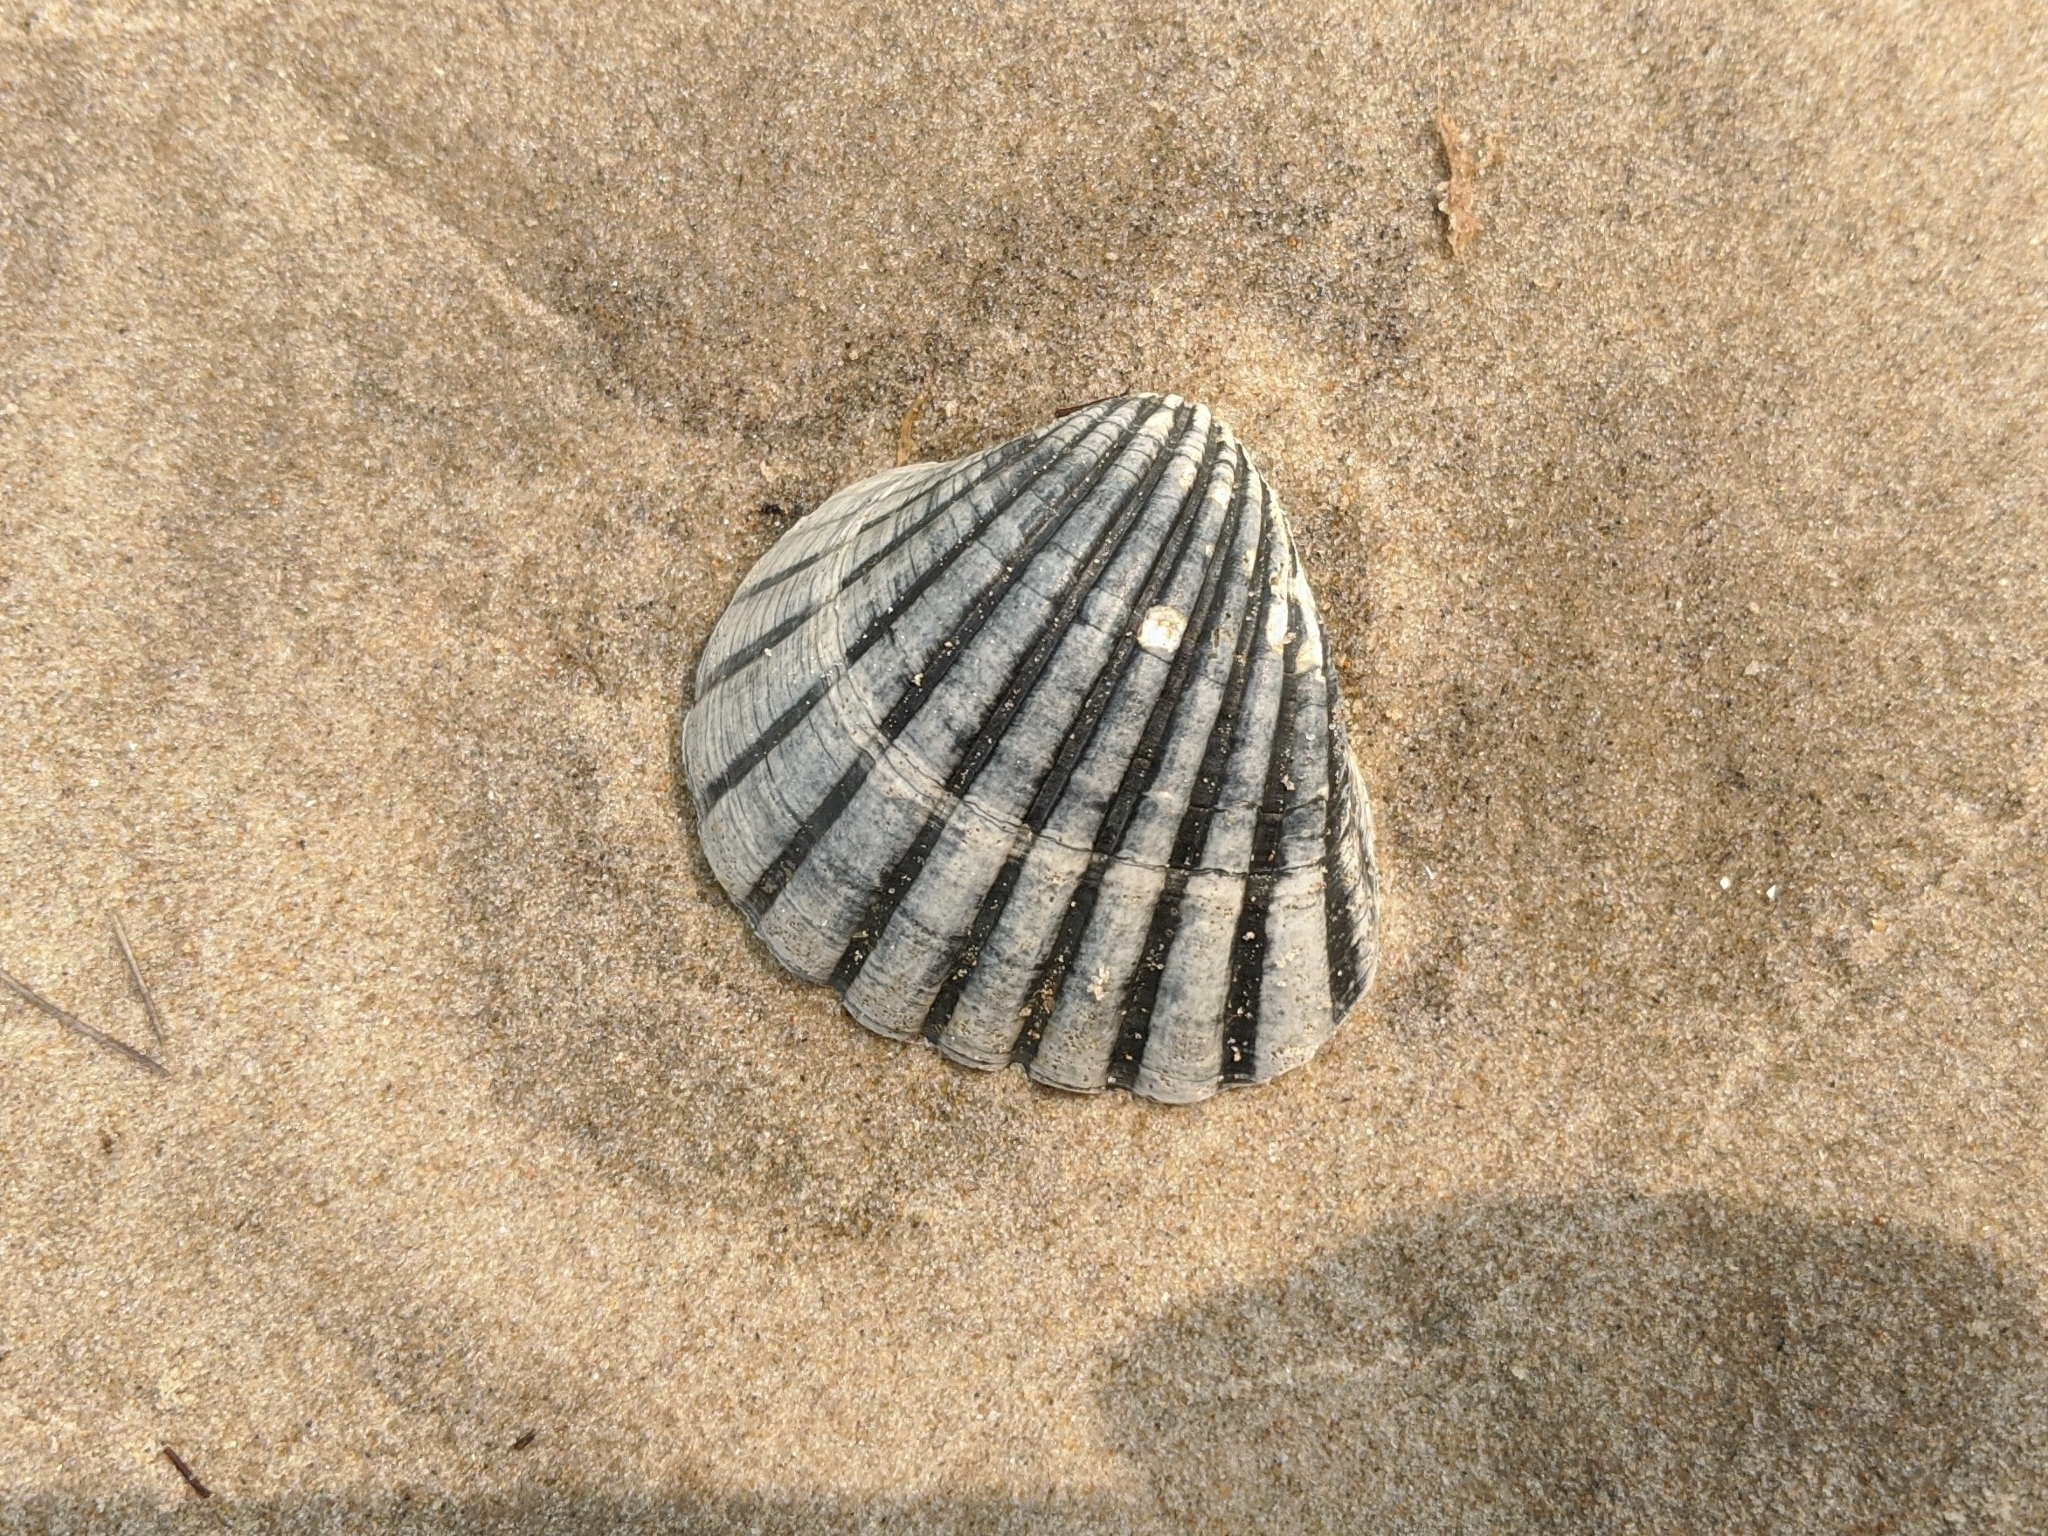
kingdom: Animalia
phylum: Mollusca
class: Bivalvia
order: Arcida
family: Arcidae
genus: Senilia
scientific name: Senilia senilis
